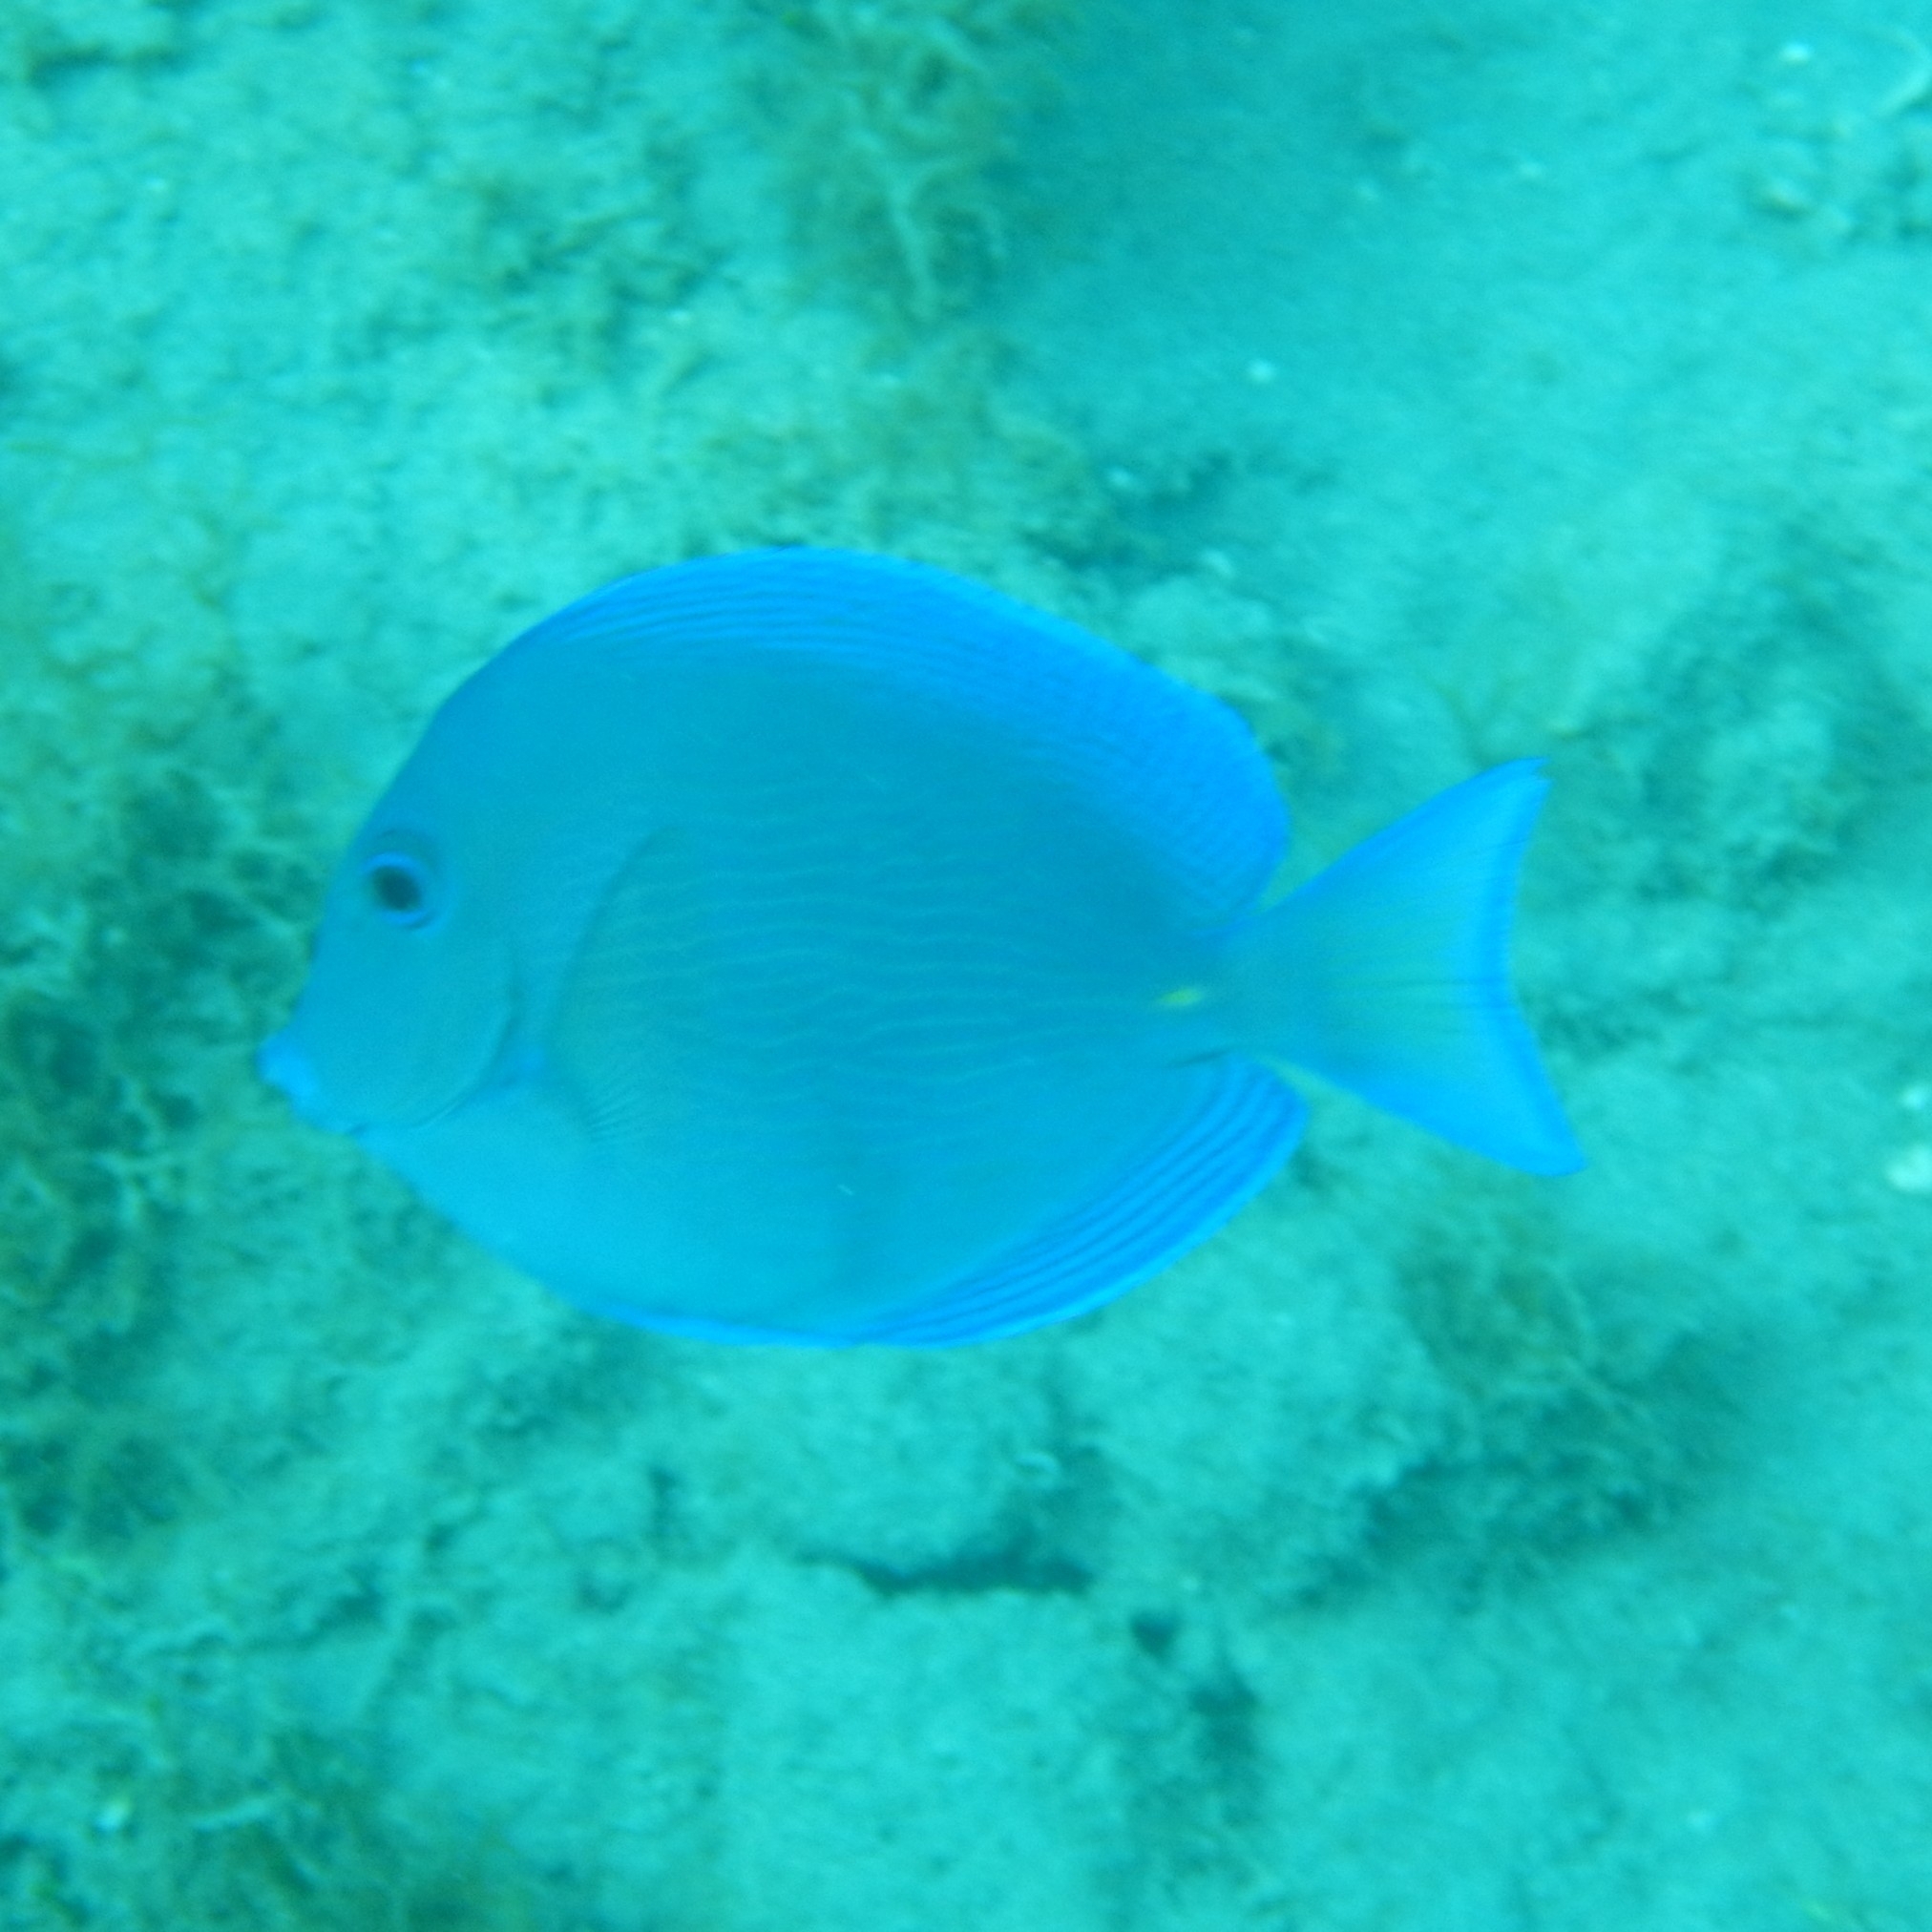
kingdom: Animalia
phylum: Chordata
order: Perciformes
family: Acanthuridae
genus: Acanthurus
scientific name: Acanthurus coeruleus
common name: Blue tang
